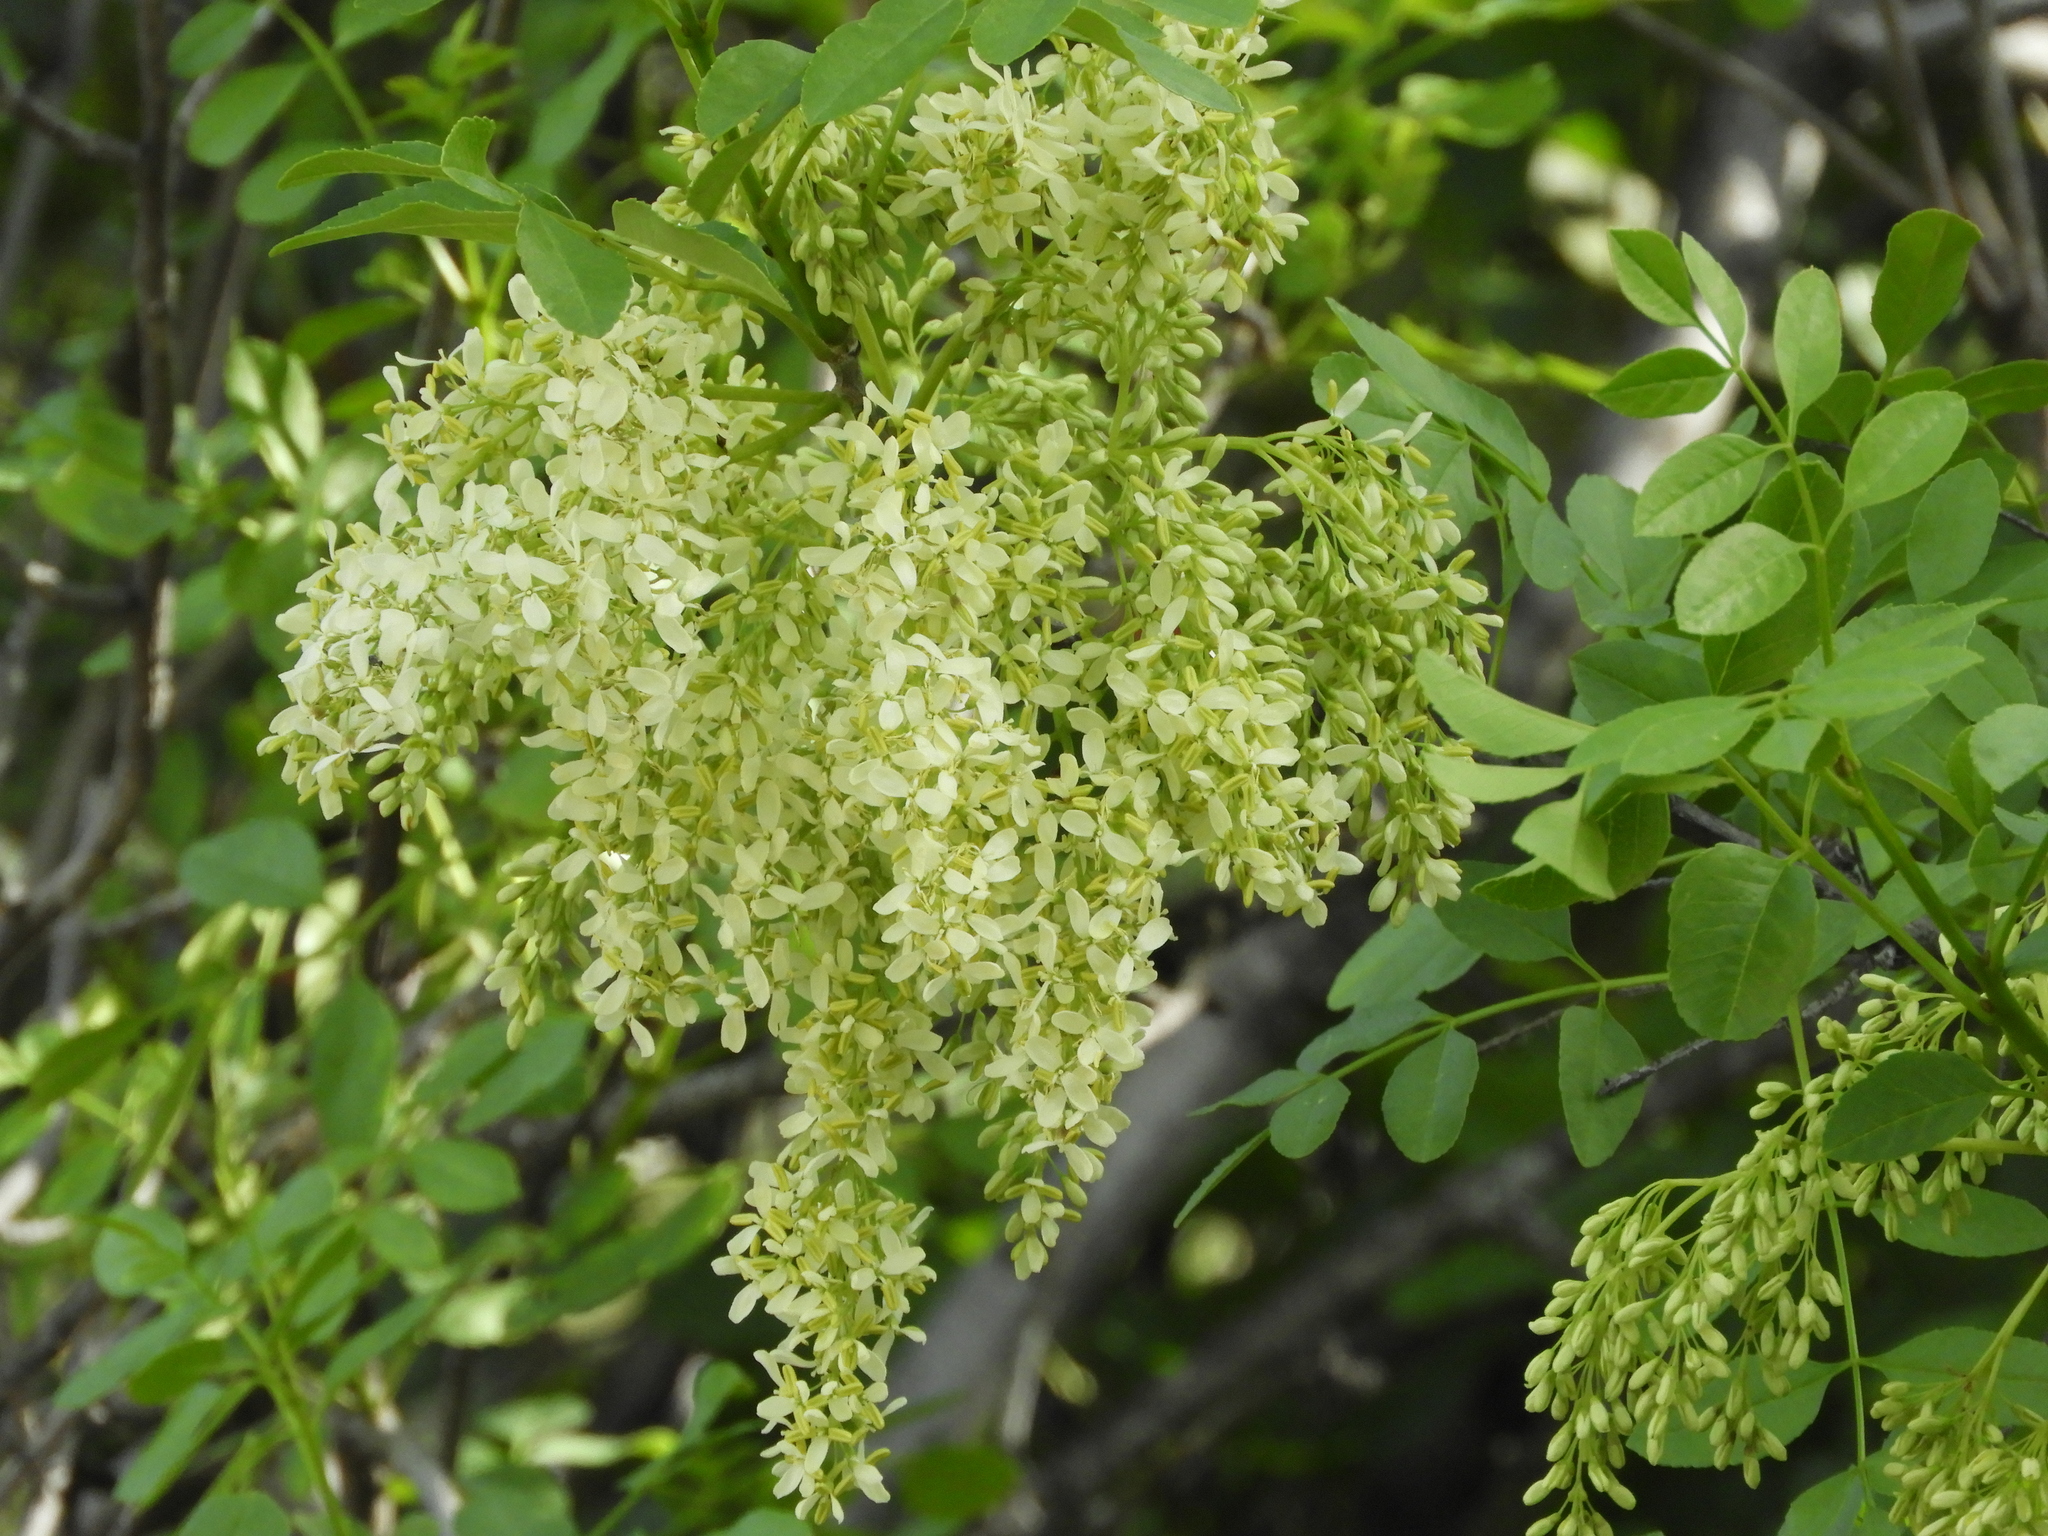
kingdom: Plantae
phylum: Tracheophyta
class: Magnoliopsida
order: Lamiales
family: Oleaceae
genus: Fraxinus
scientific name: Fraxinus dipetala
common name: California ash
